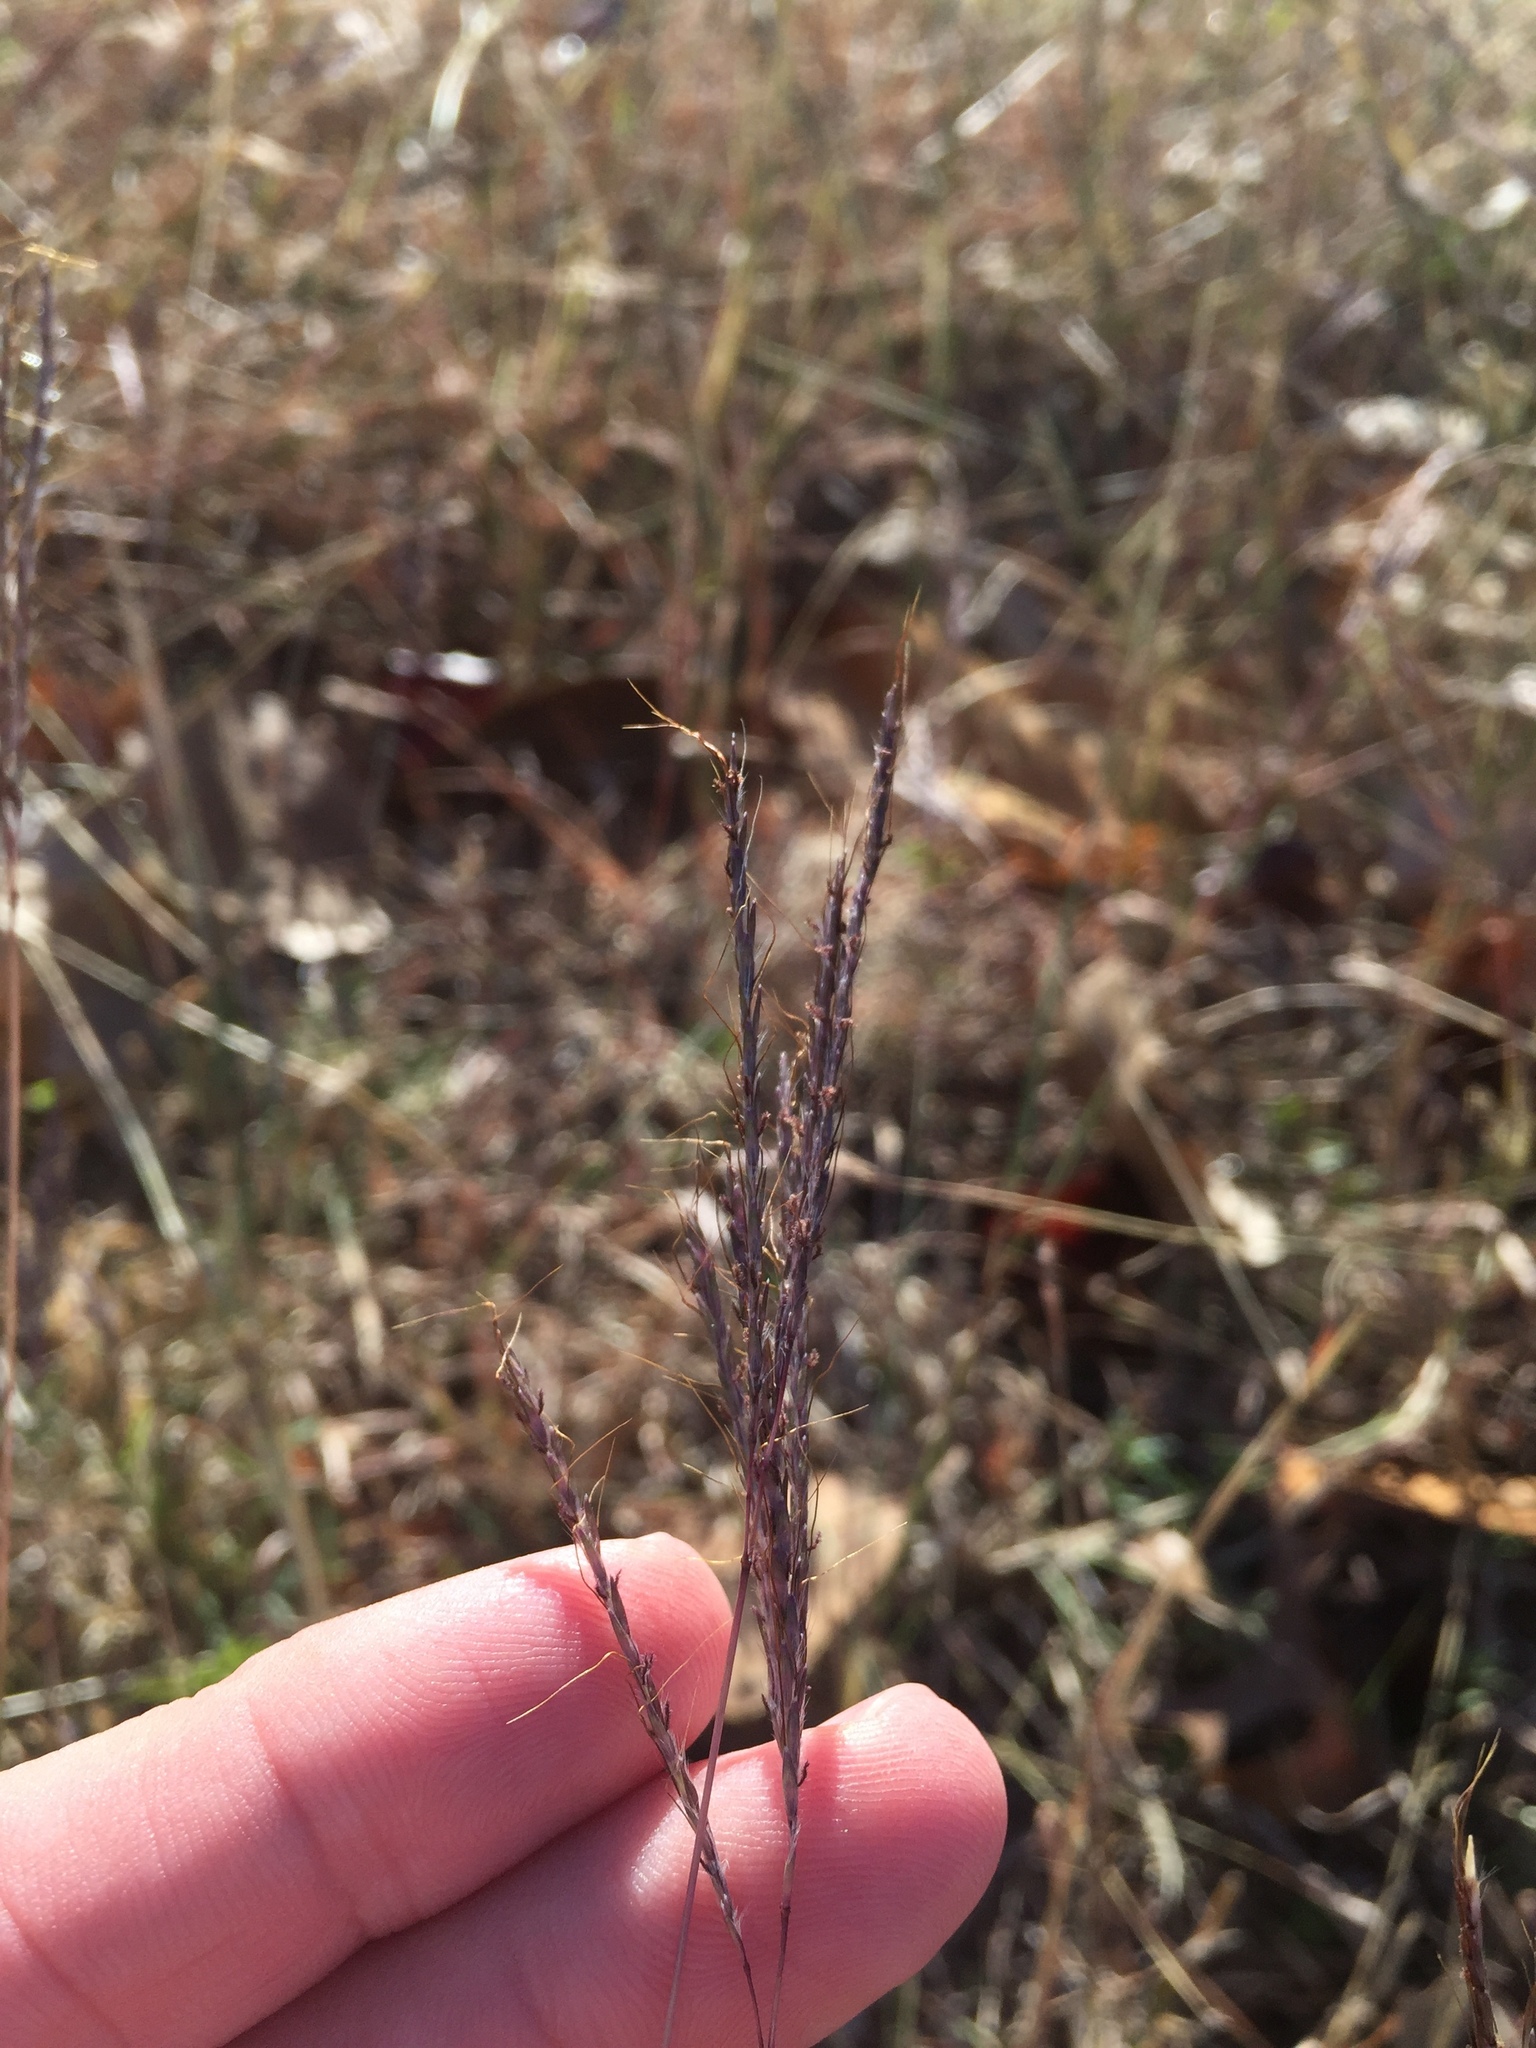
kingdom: Plantae
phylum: Tracheophyta
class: Liliopsida
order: Poales
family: Poaceae
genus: Bothriochloa
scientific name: Bothriochloa ischaemum
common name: Yellow bluestem
